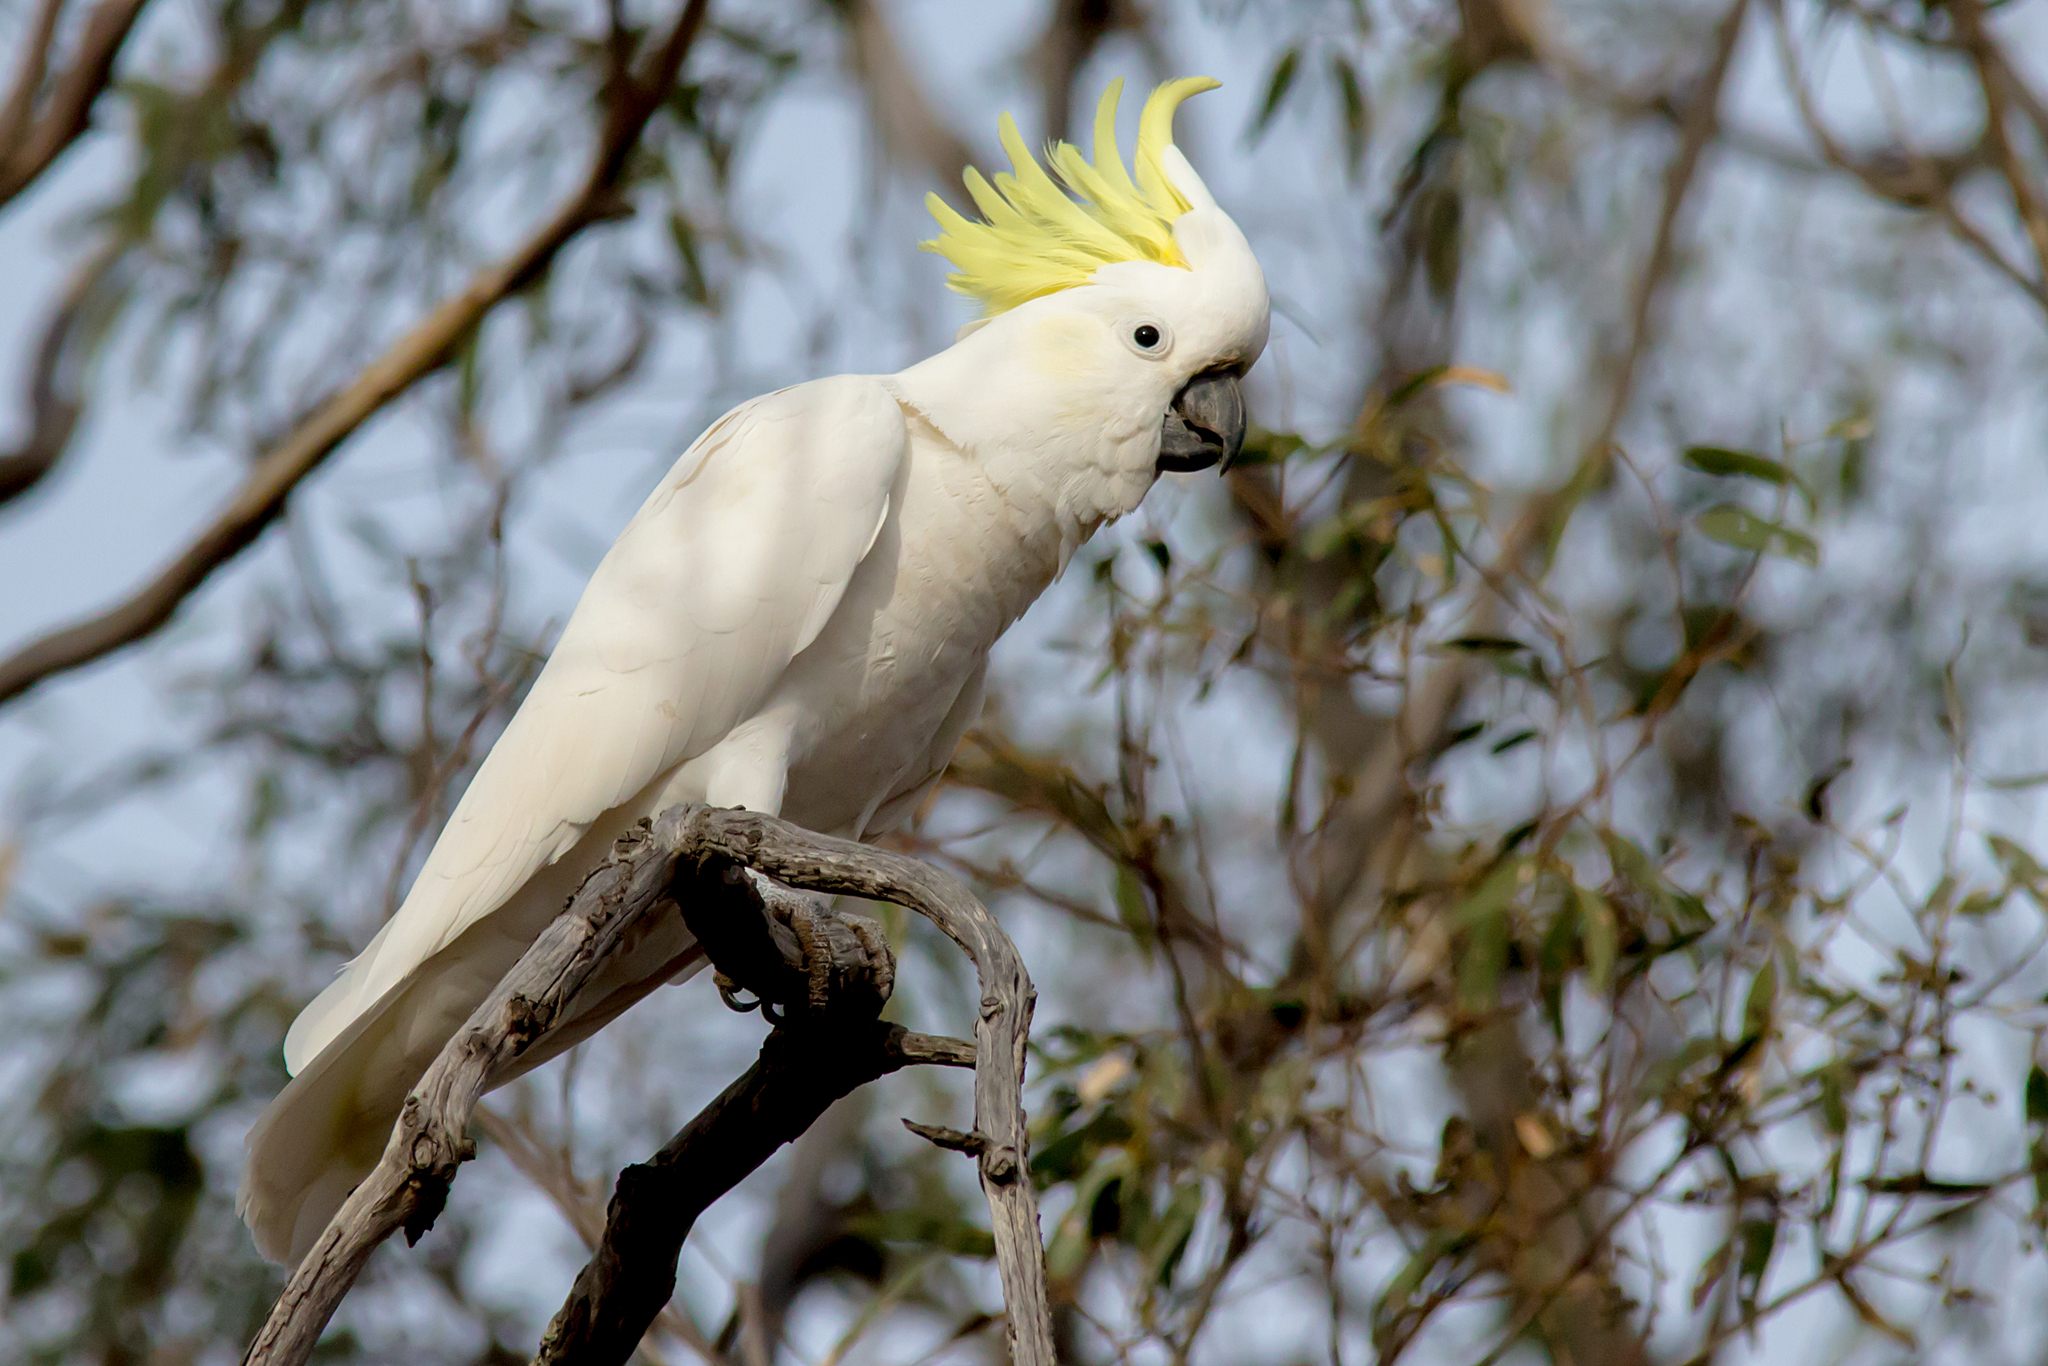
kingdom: Animalia
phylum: Chordata
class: Aves
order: Psittaciformes
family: Psittacidae
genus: Cacatua
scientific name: Cacatua galerita
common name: Sulphur-crested cockatoo
